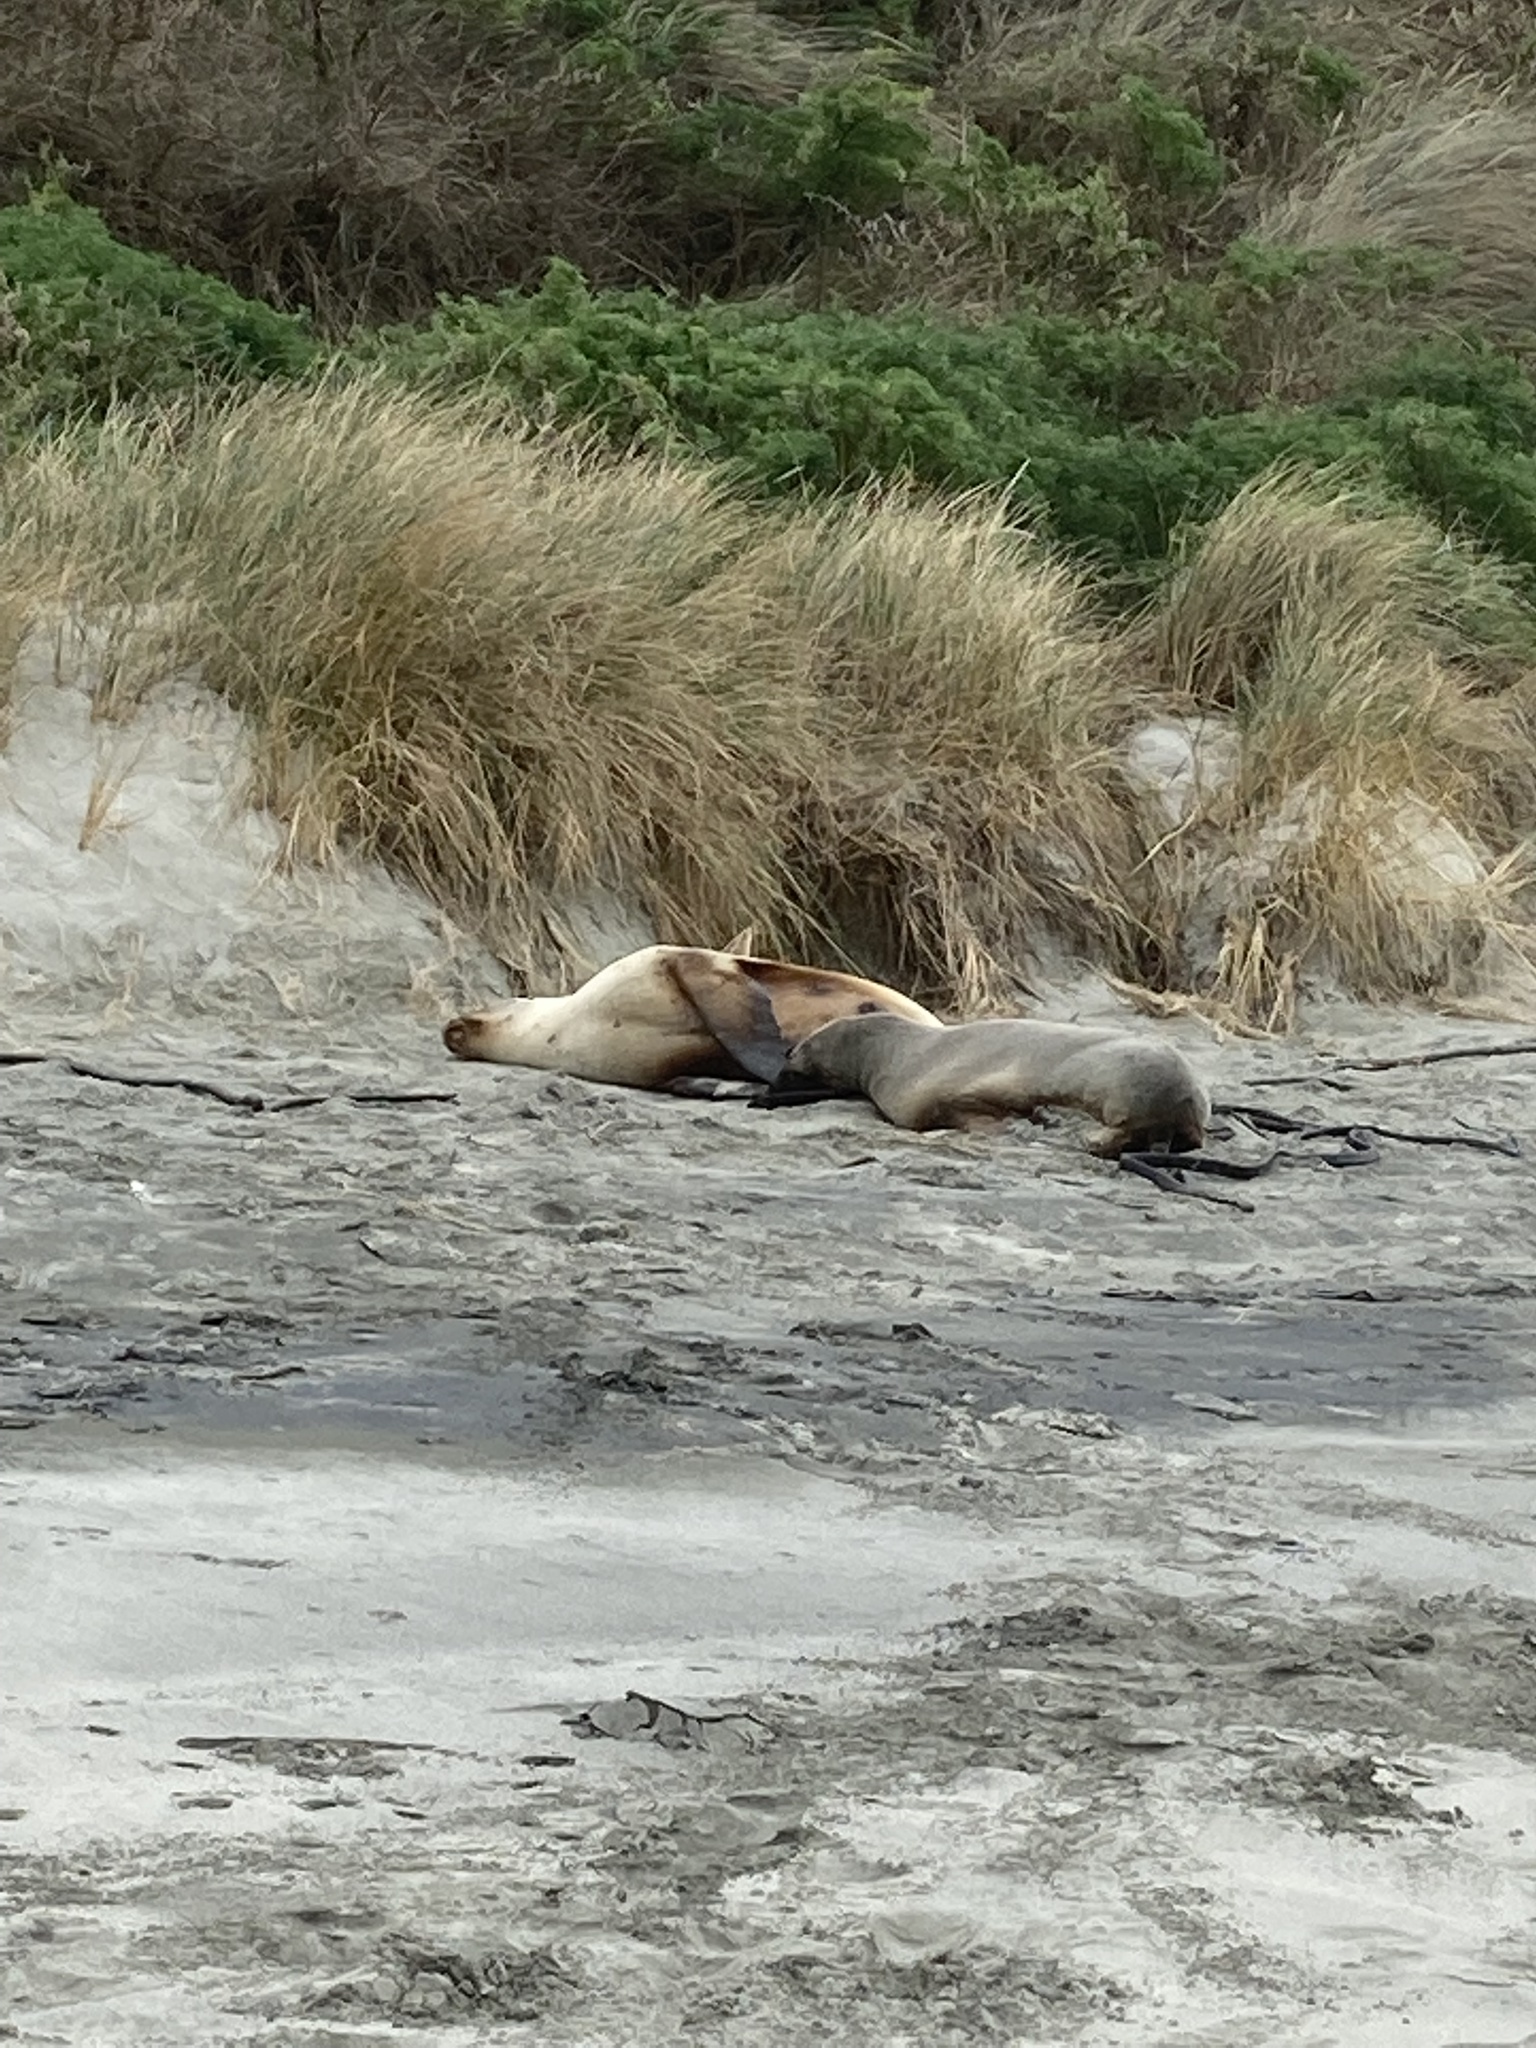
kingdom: Animalia
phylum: Chordata
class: Mammalia
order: Carnivora
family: Otariidae
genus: Phocarctos
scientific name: Phocarctos hookeri
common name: New zealand sea lion
